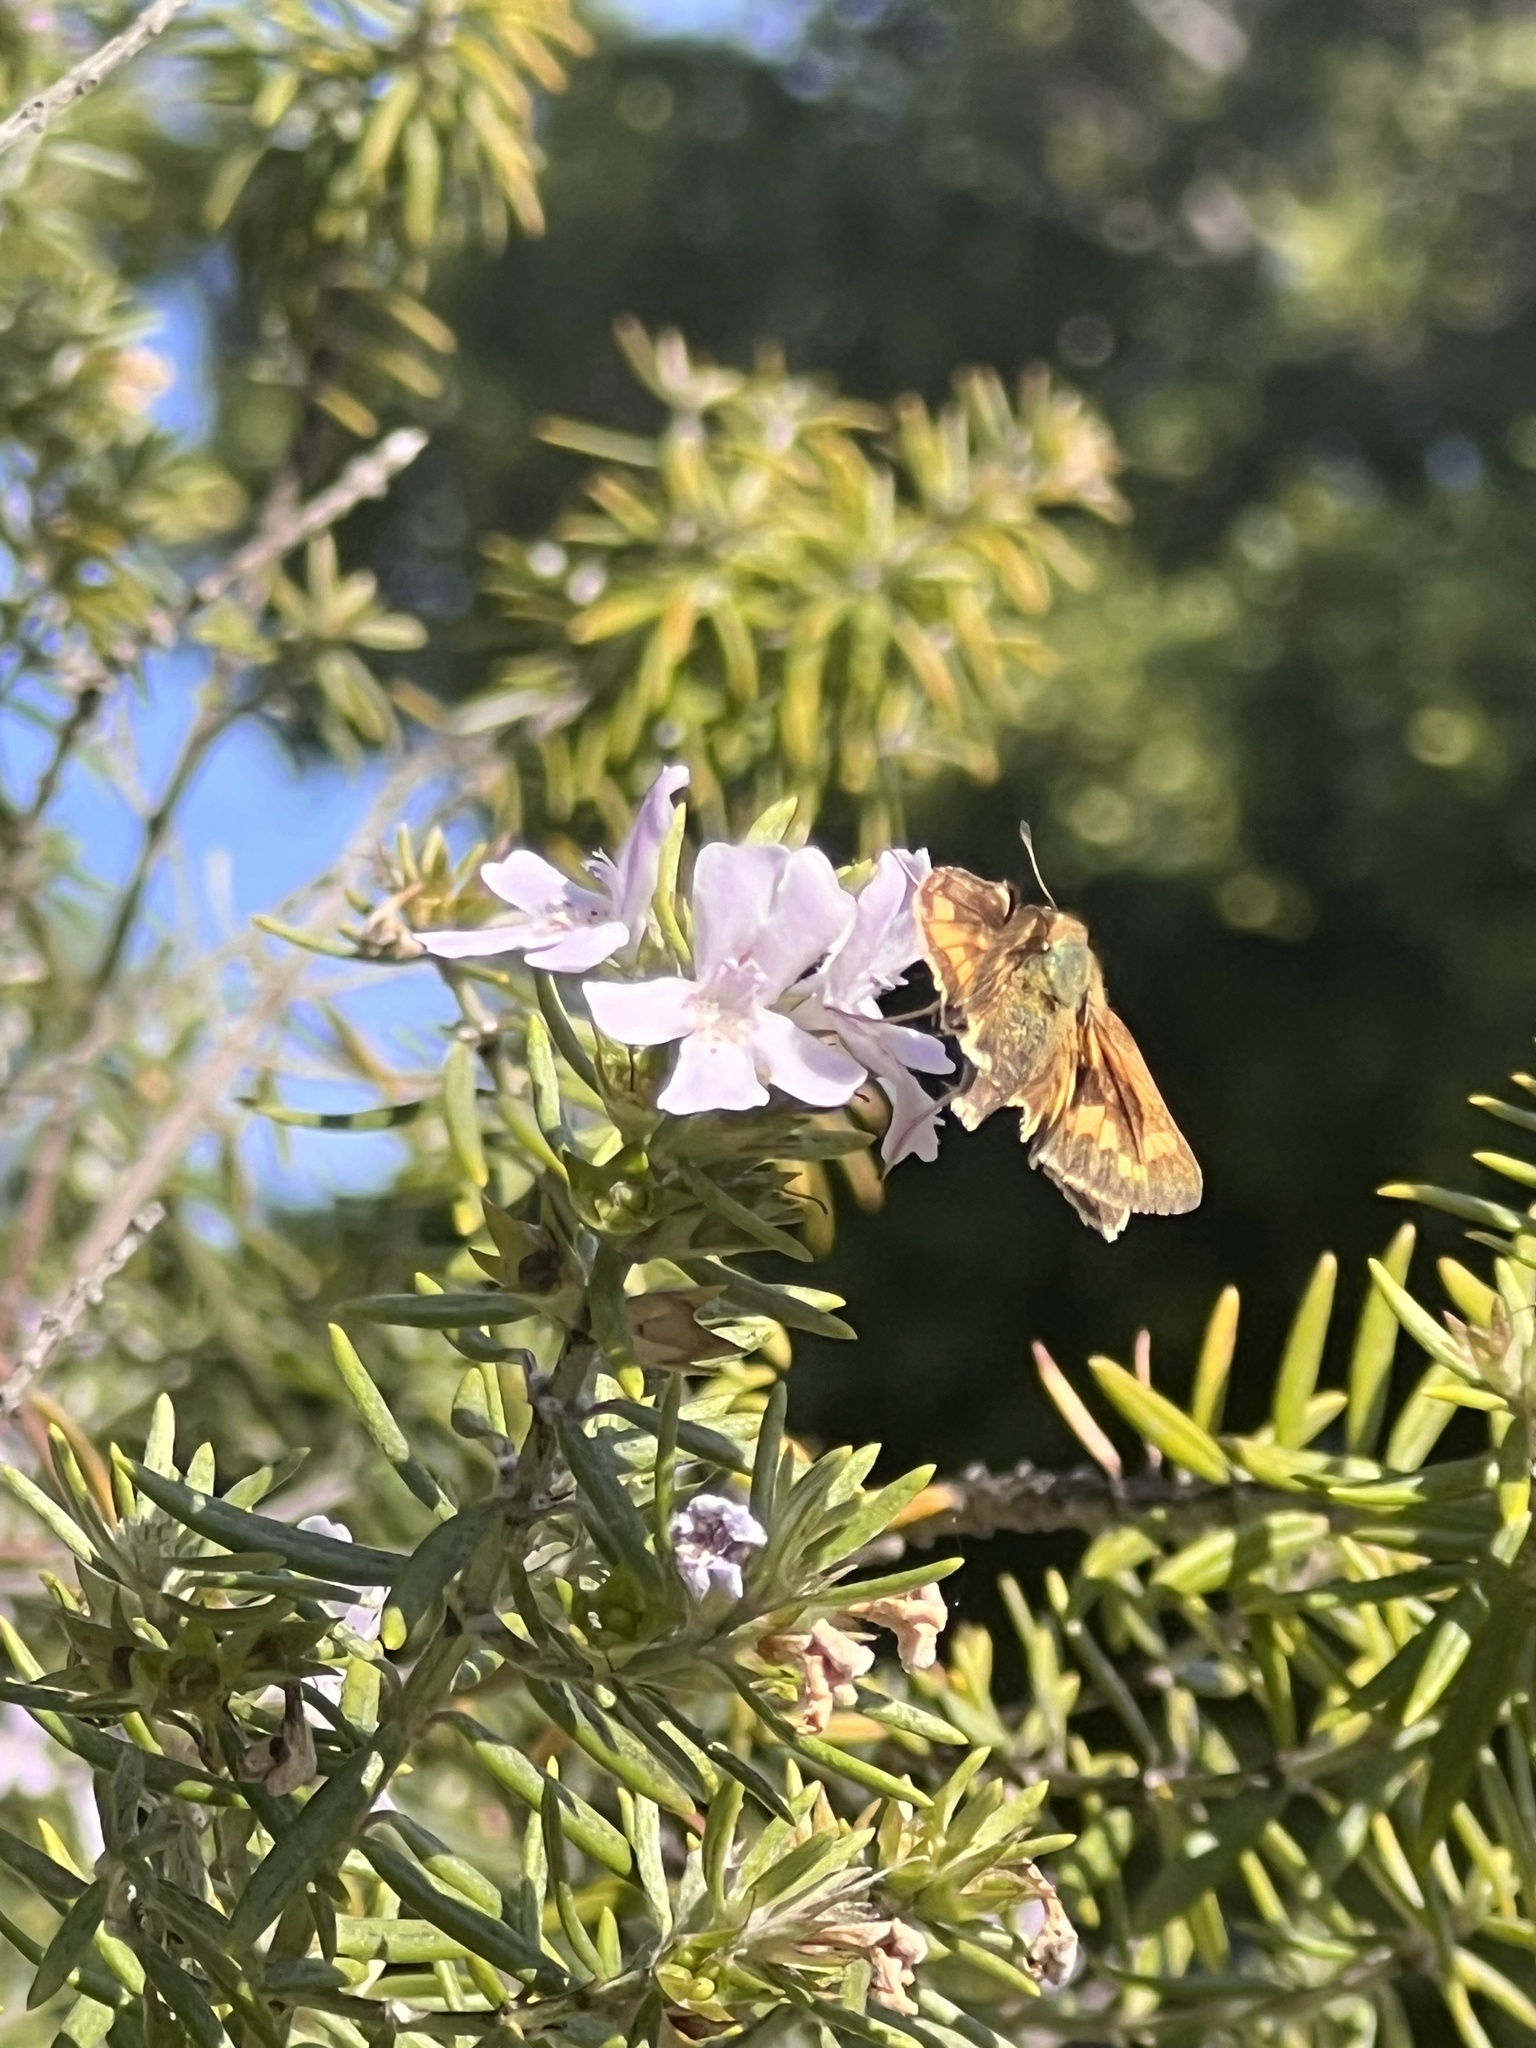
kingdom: Animalia
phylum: Arthropoda
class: Insecta
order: Lepidoptera
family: Hesperiidae
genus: Hylephila
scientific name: Hylephila phyleus
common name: Fiery skipper
